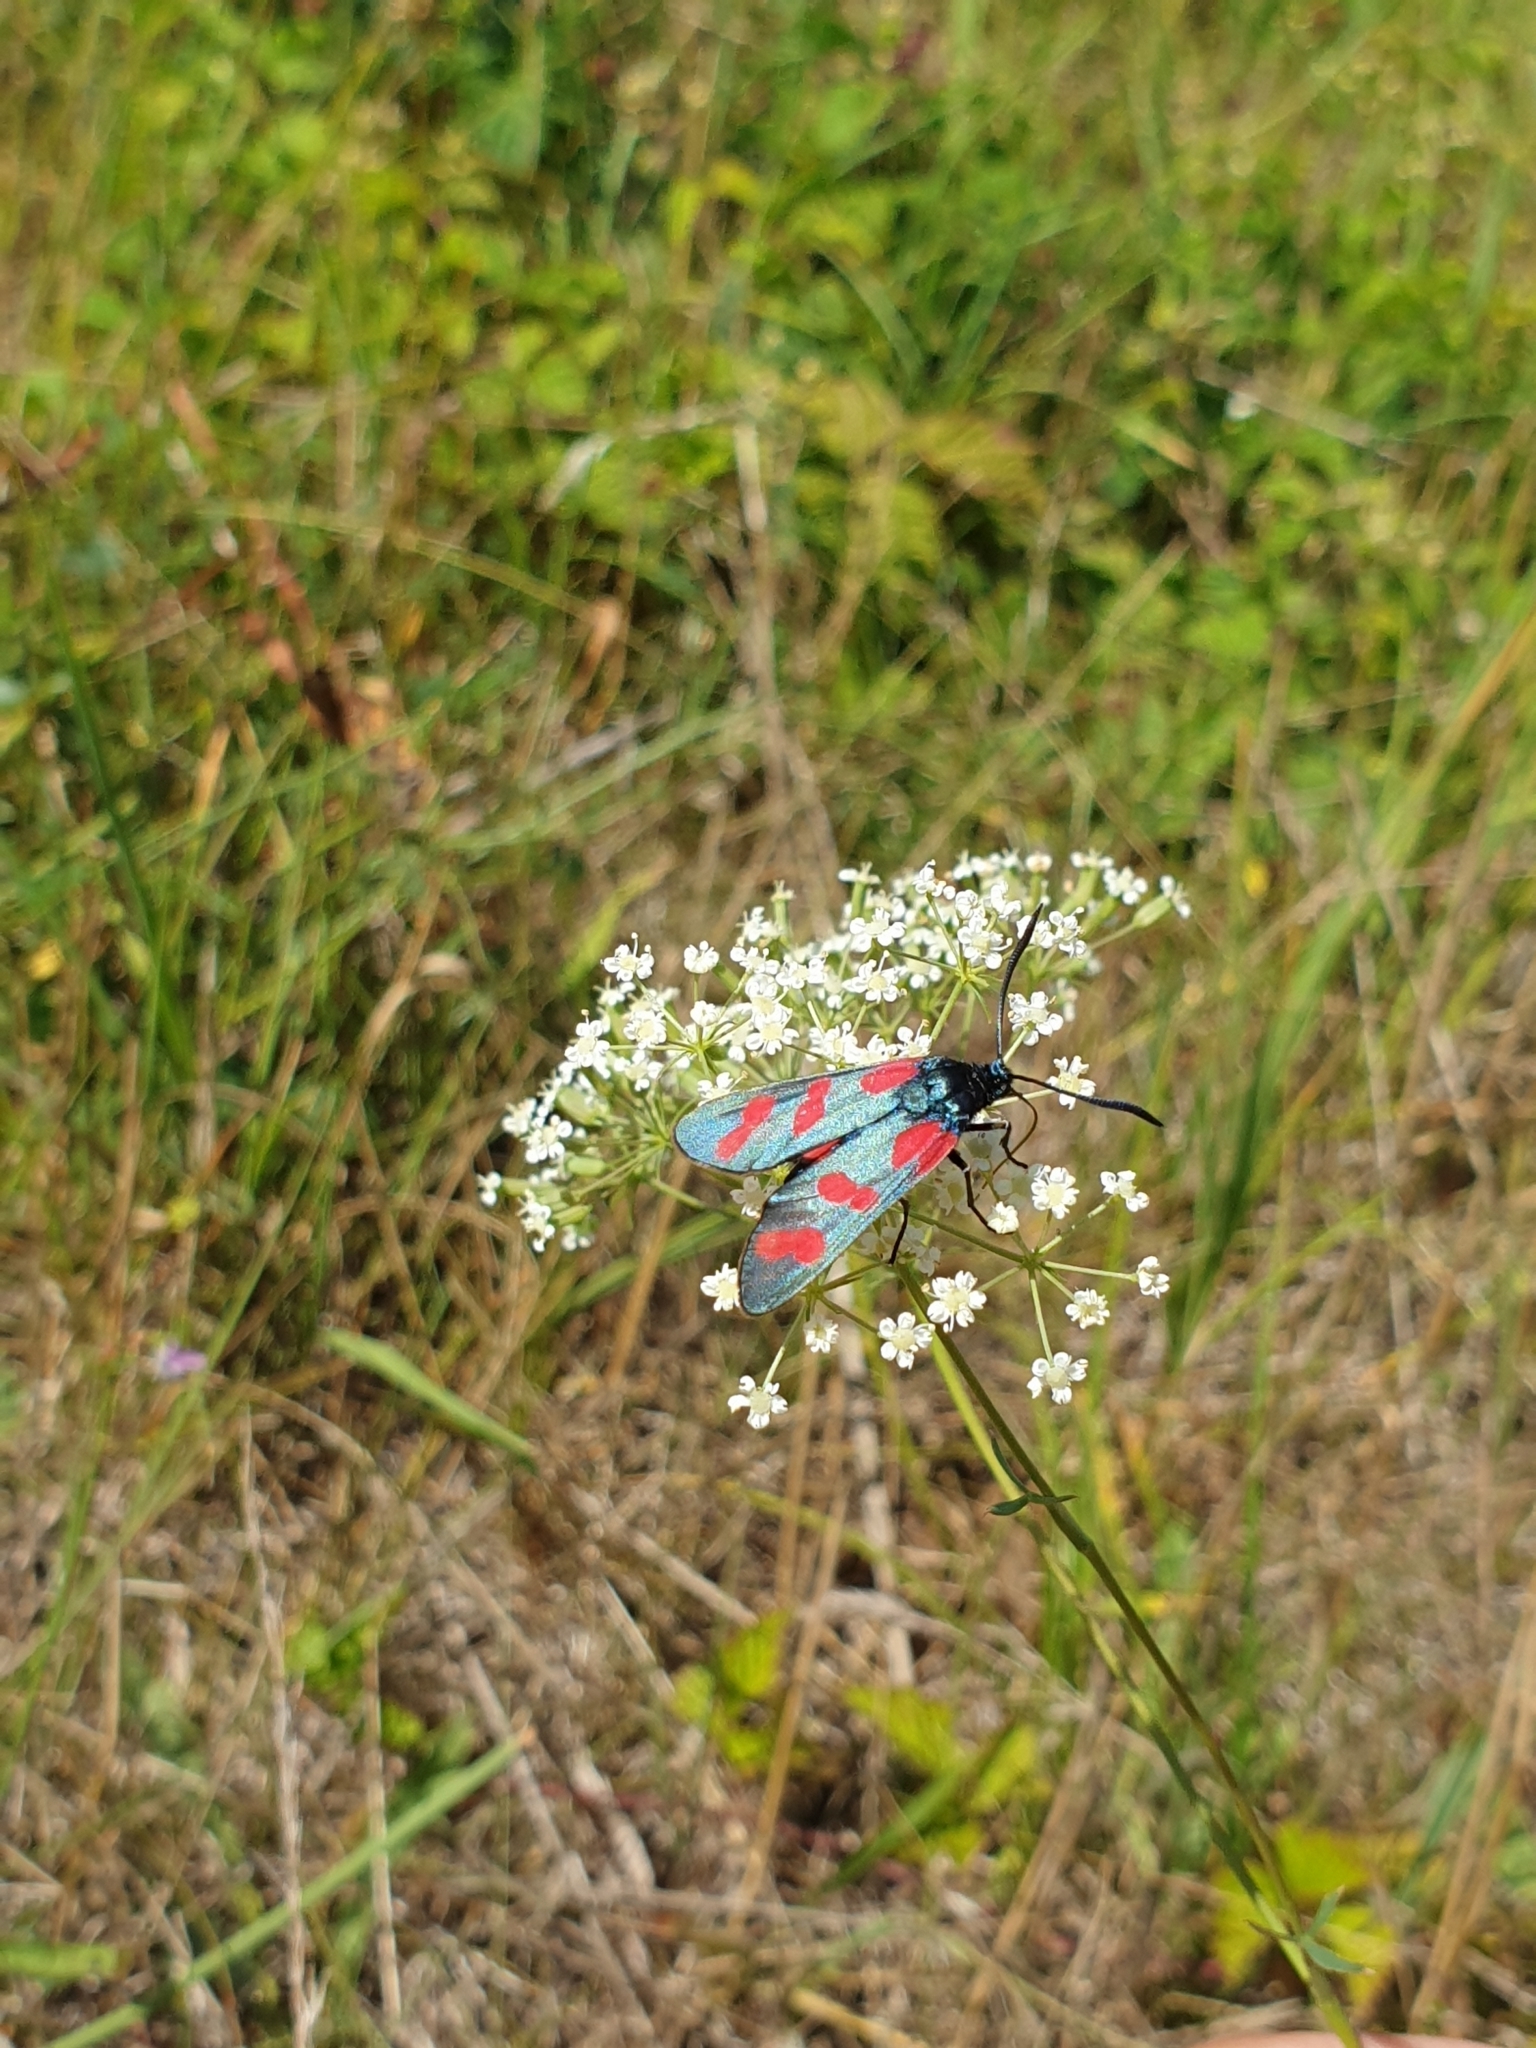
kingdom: Animalia
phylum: Arthropoda
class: Insecta
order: Lepidoptera
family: Zygaenidae
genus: Zygaena
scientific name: Zygaena filipendulae
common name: Six-spot burnet
